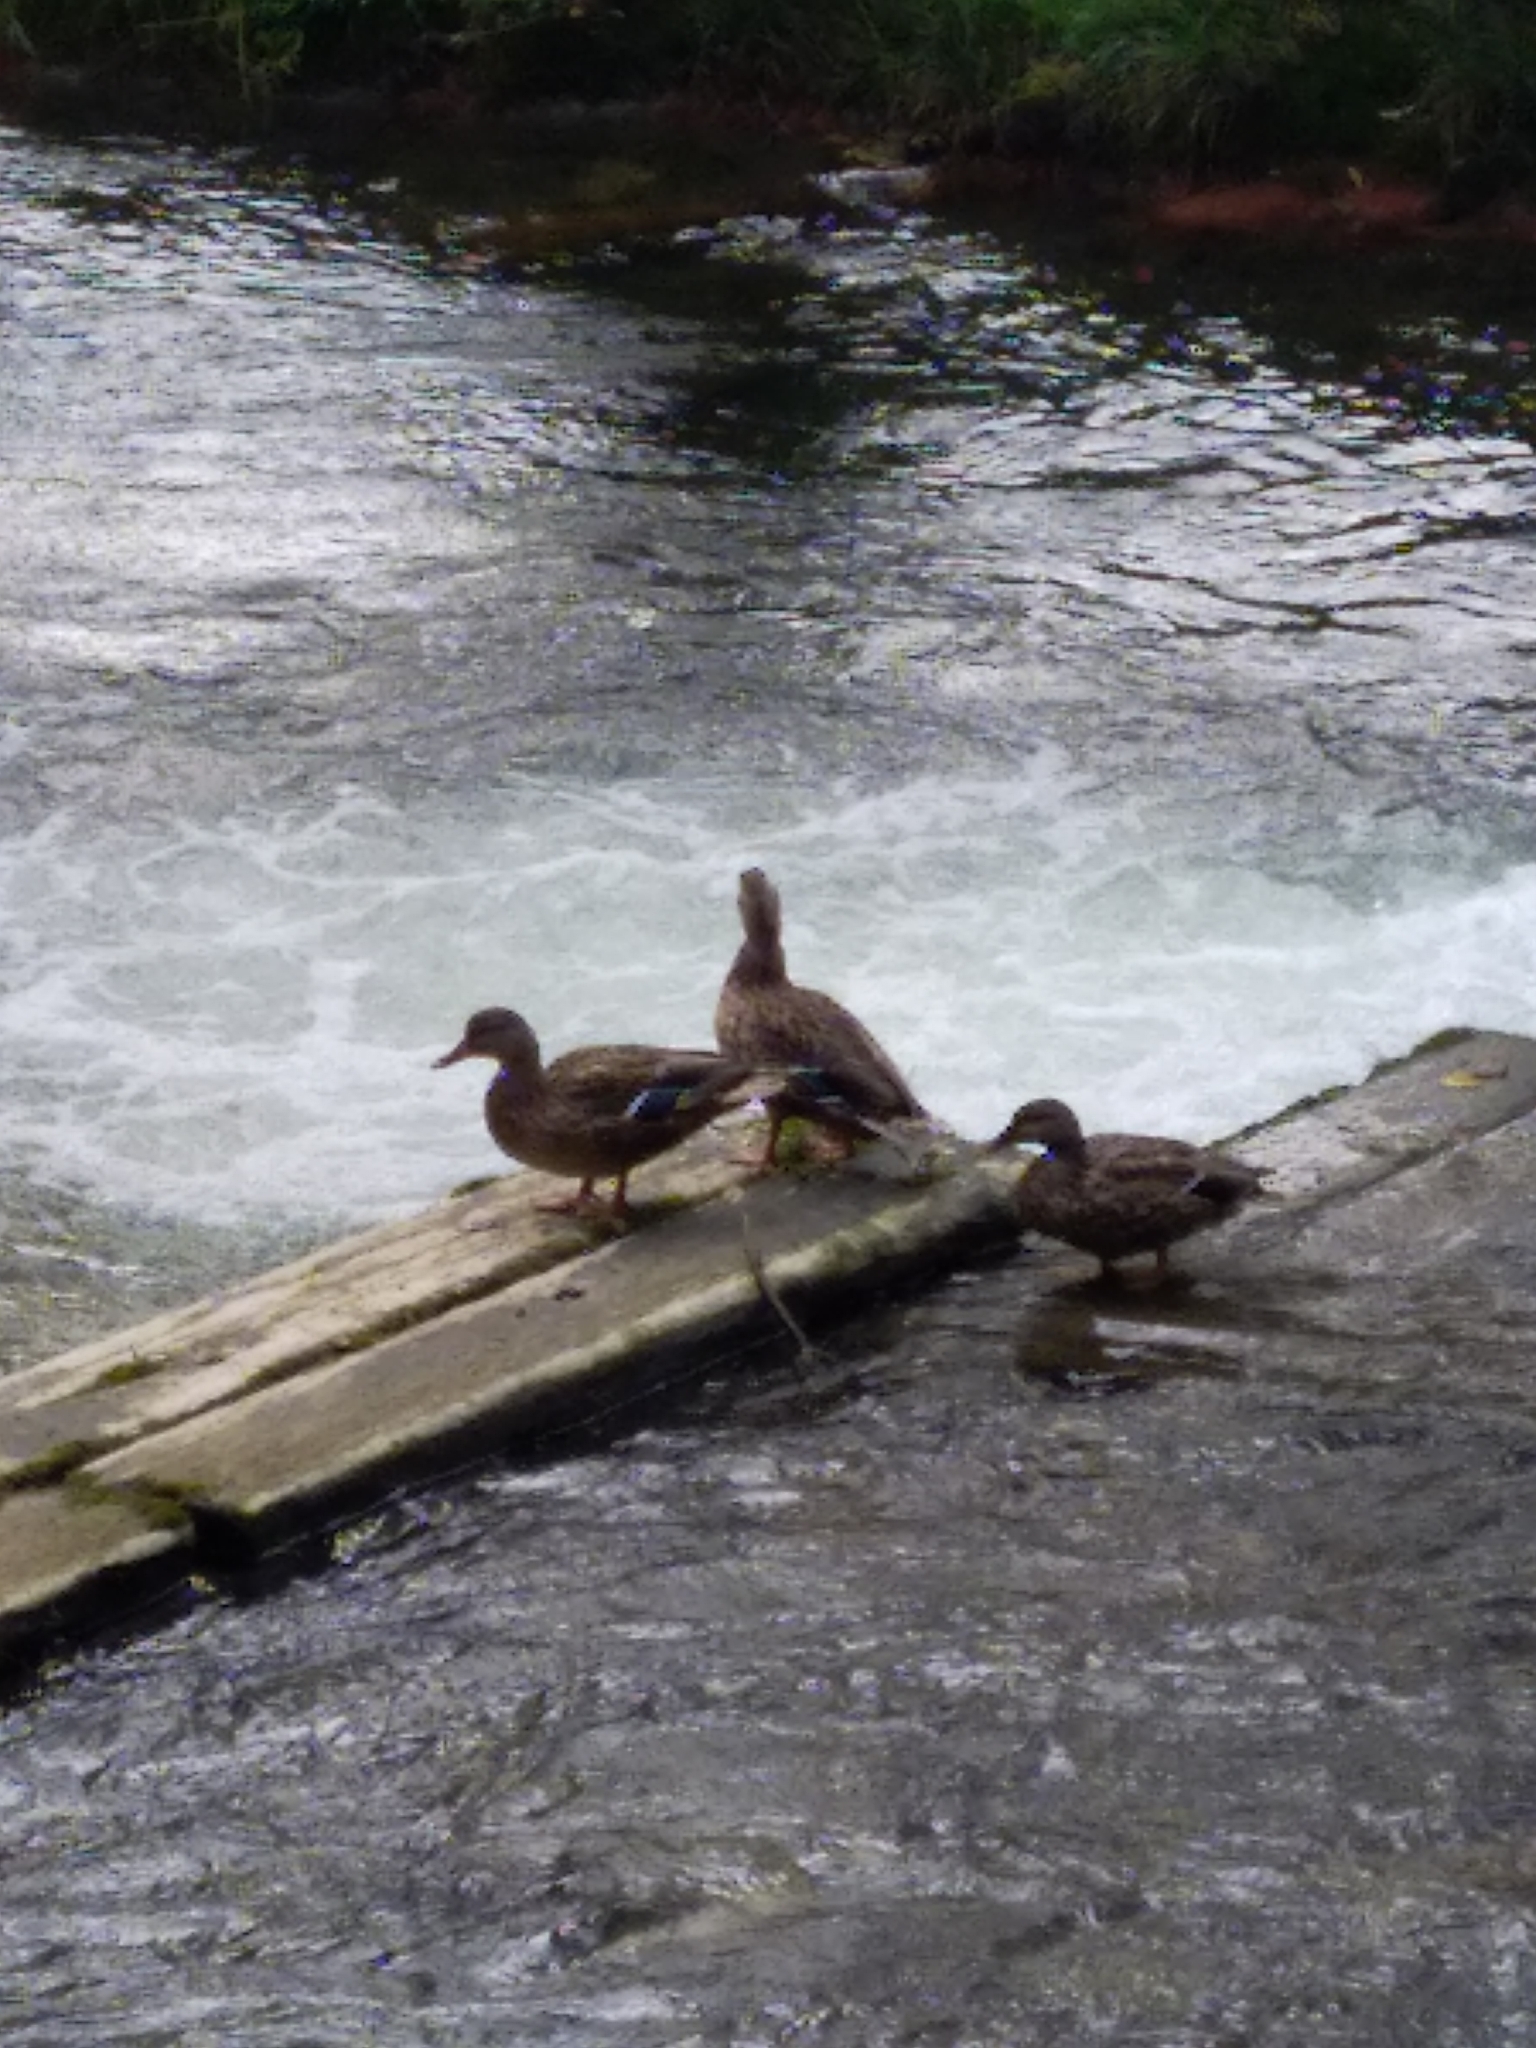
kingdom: Animalia
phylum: Chordata
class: Aves
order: Anseriformes
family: Anatidae
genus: Anas
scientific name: Anas platyrhynchos
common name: Mallard
